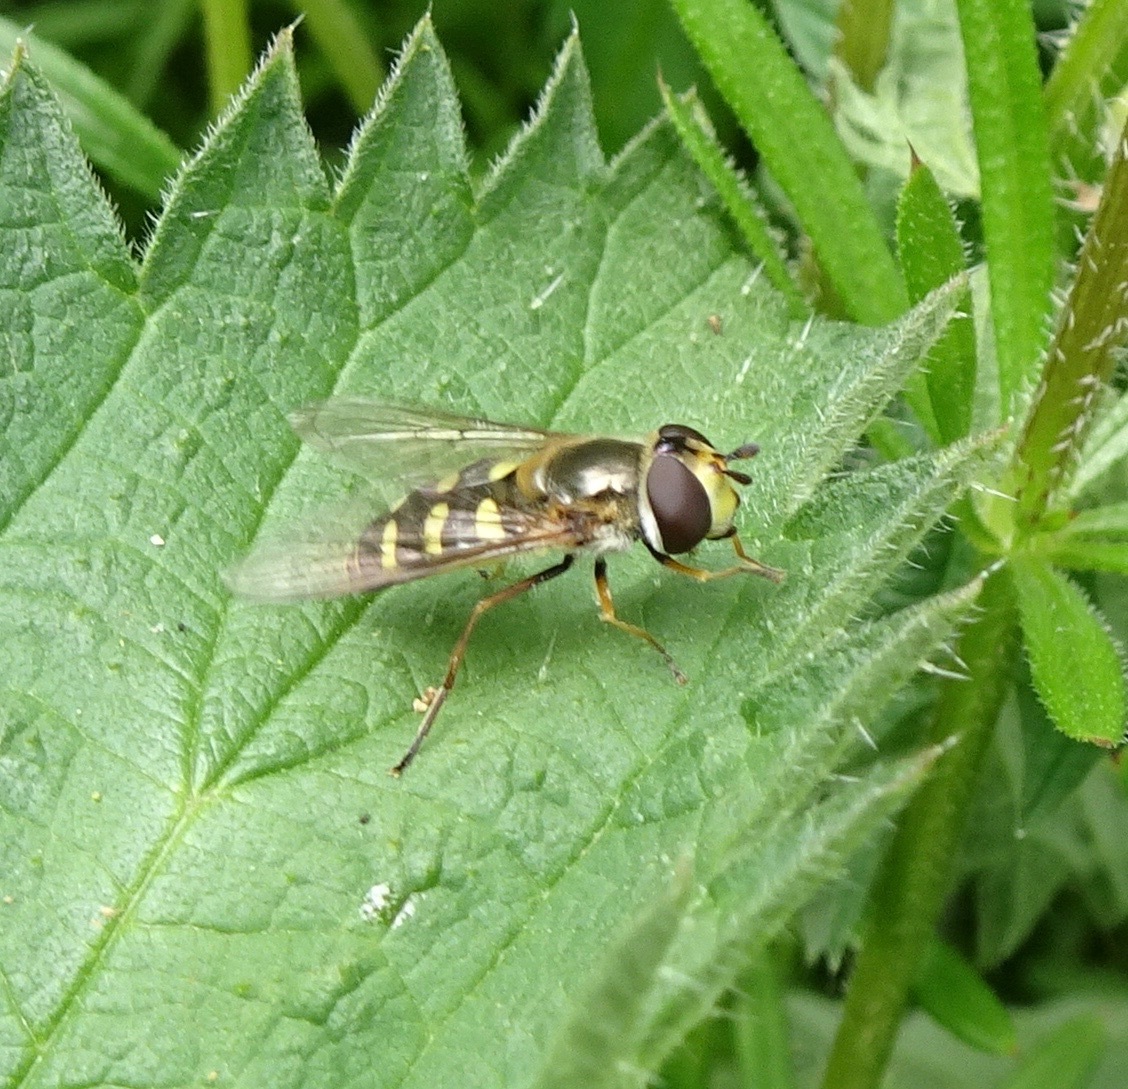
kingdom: Animalia
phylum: Arthropoda
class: Insecta
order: Diptera
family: Syrphidae
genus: Eupeodes
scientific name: Eupeodes luniger
